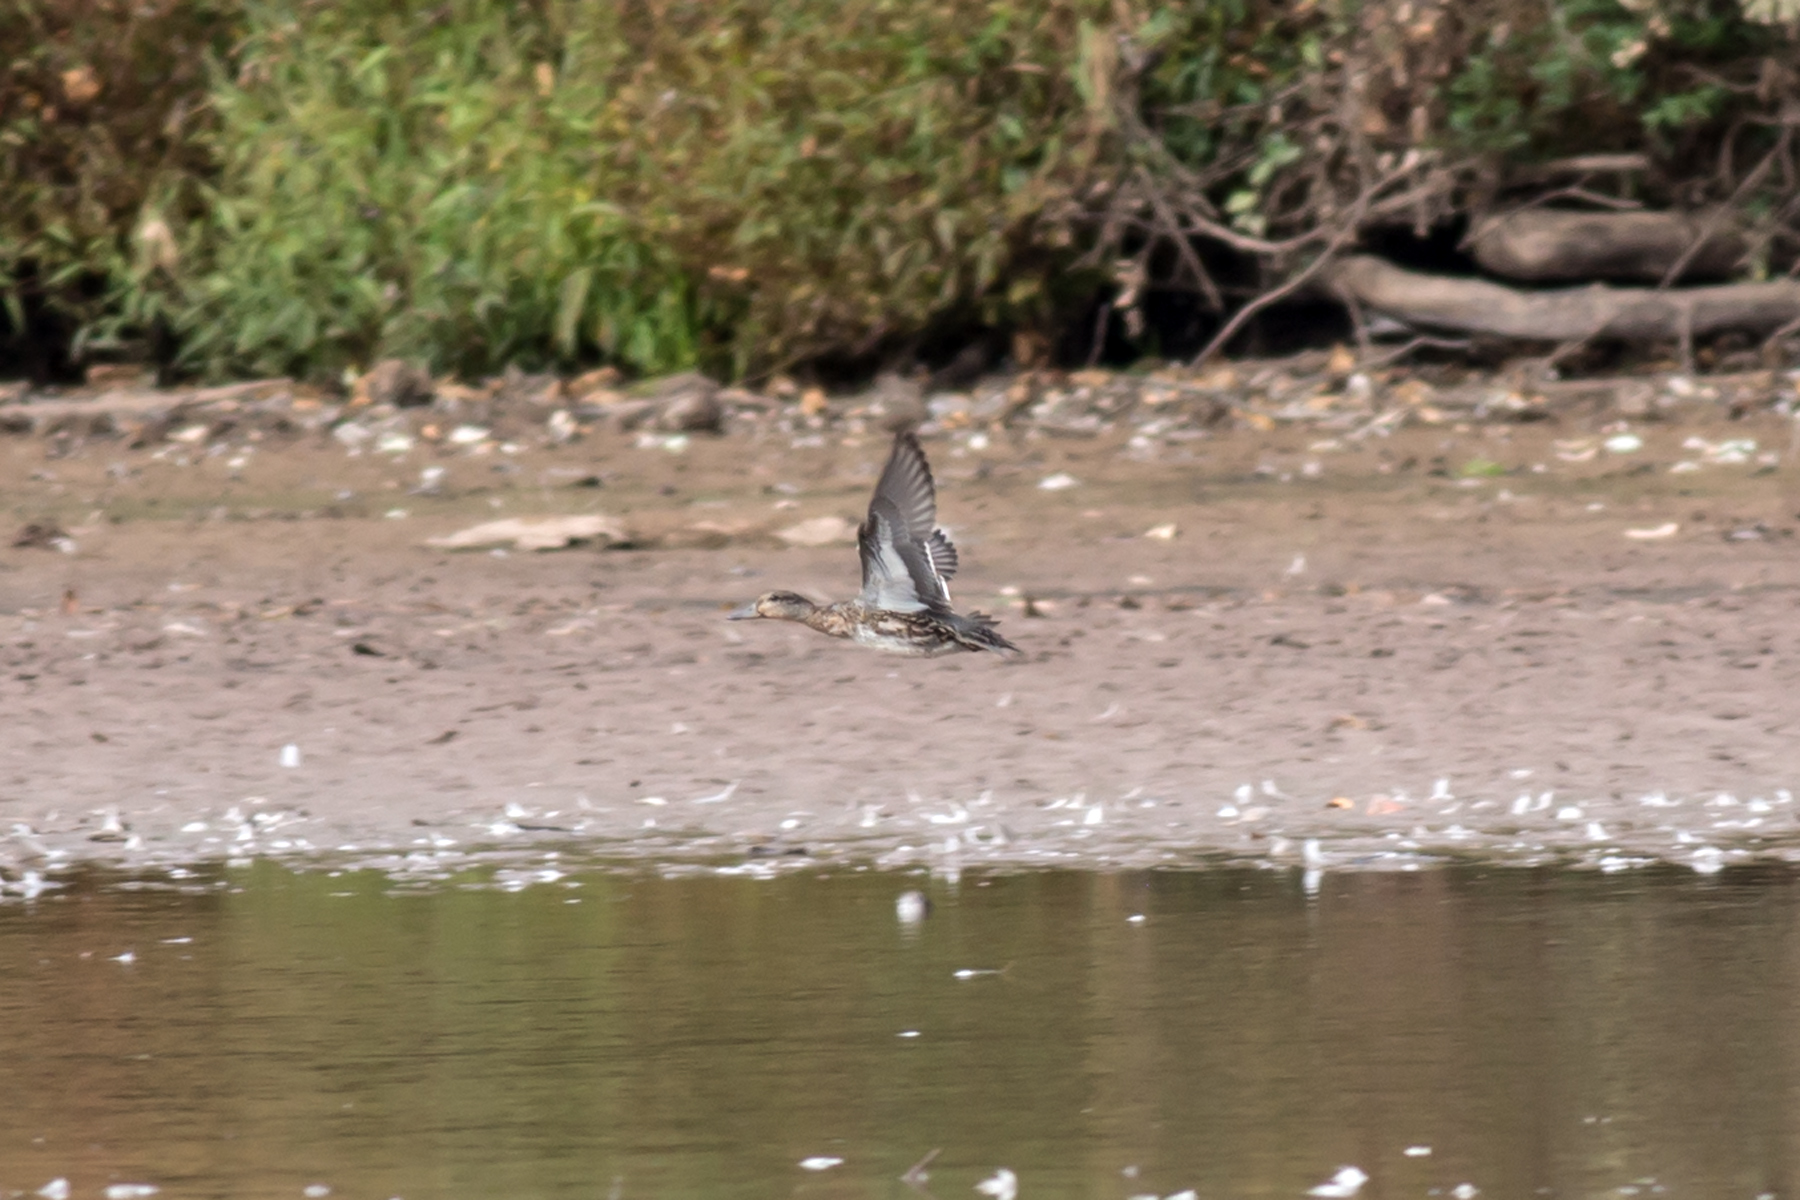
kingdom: Animalia
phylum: Chordata
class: Aves
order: Anseriformes
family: Anatidae
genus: Anas
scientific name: Anas crecca
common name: Eurasian teal
